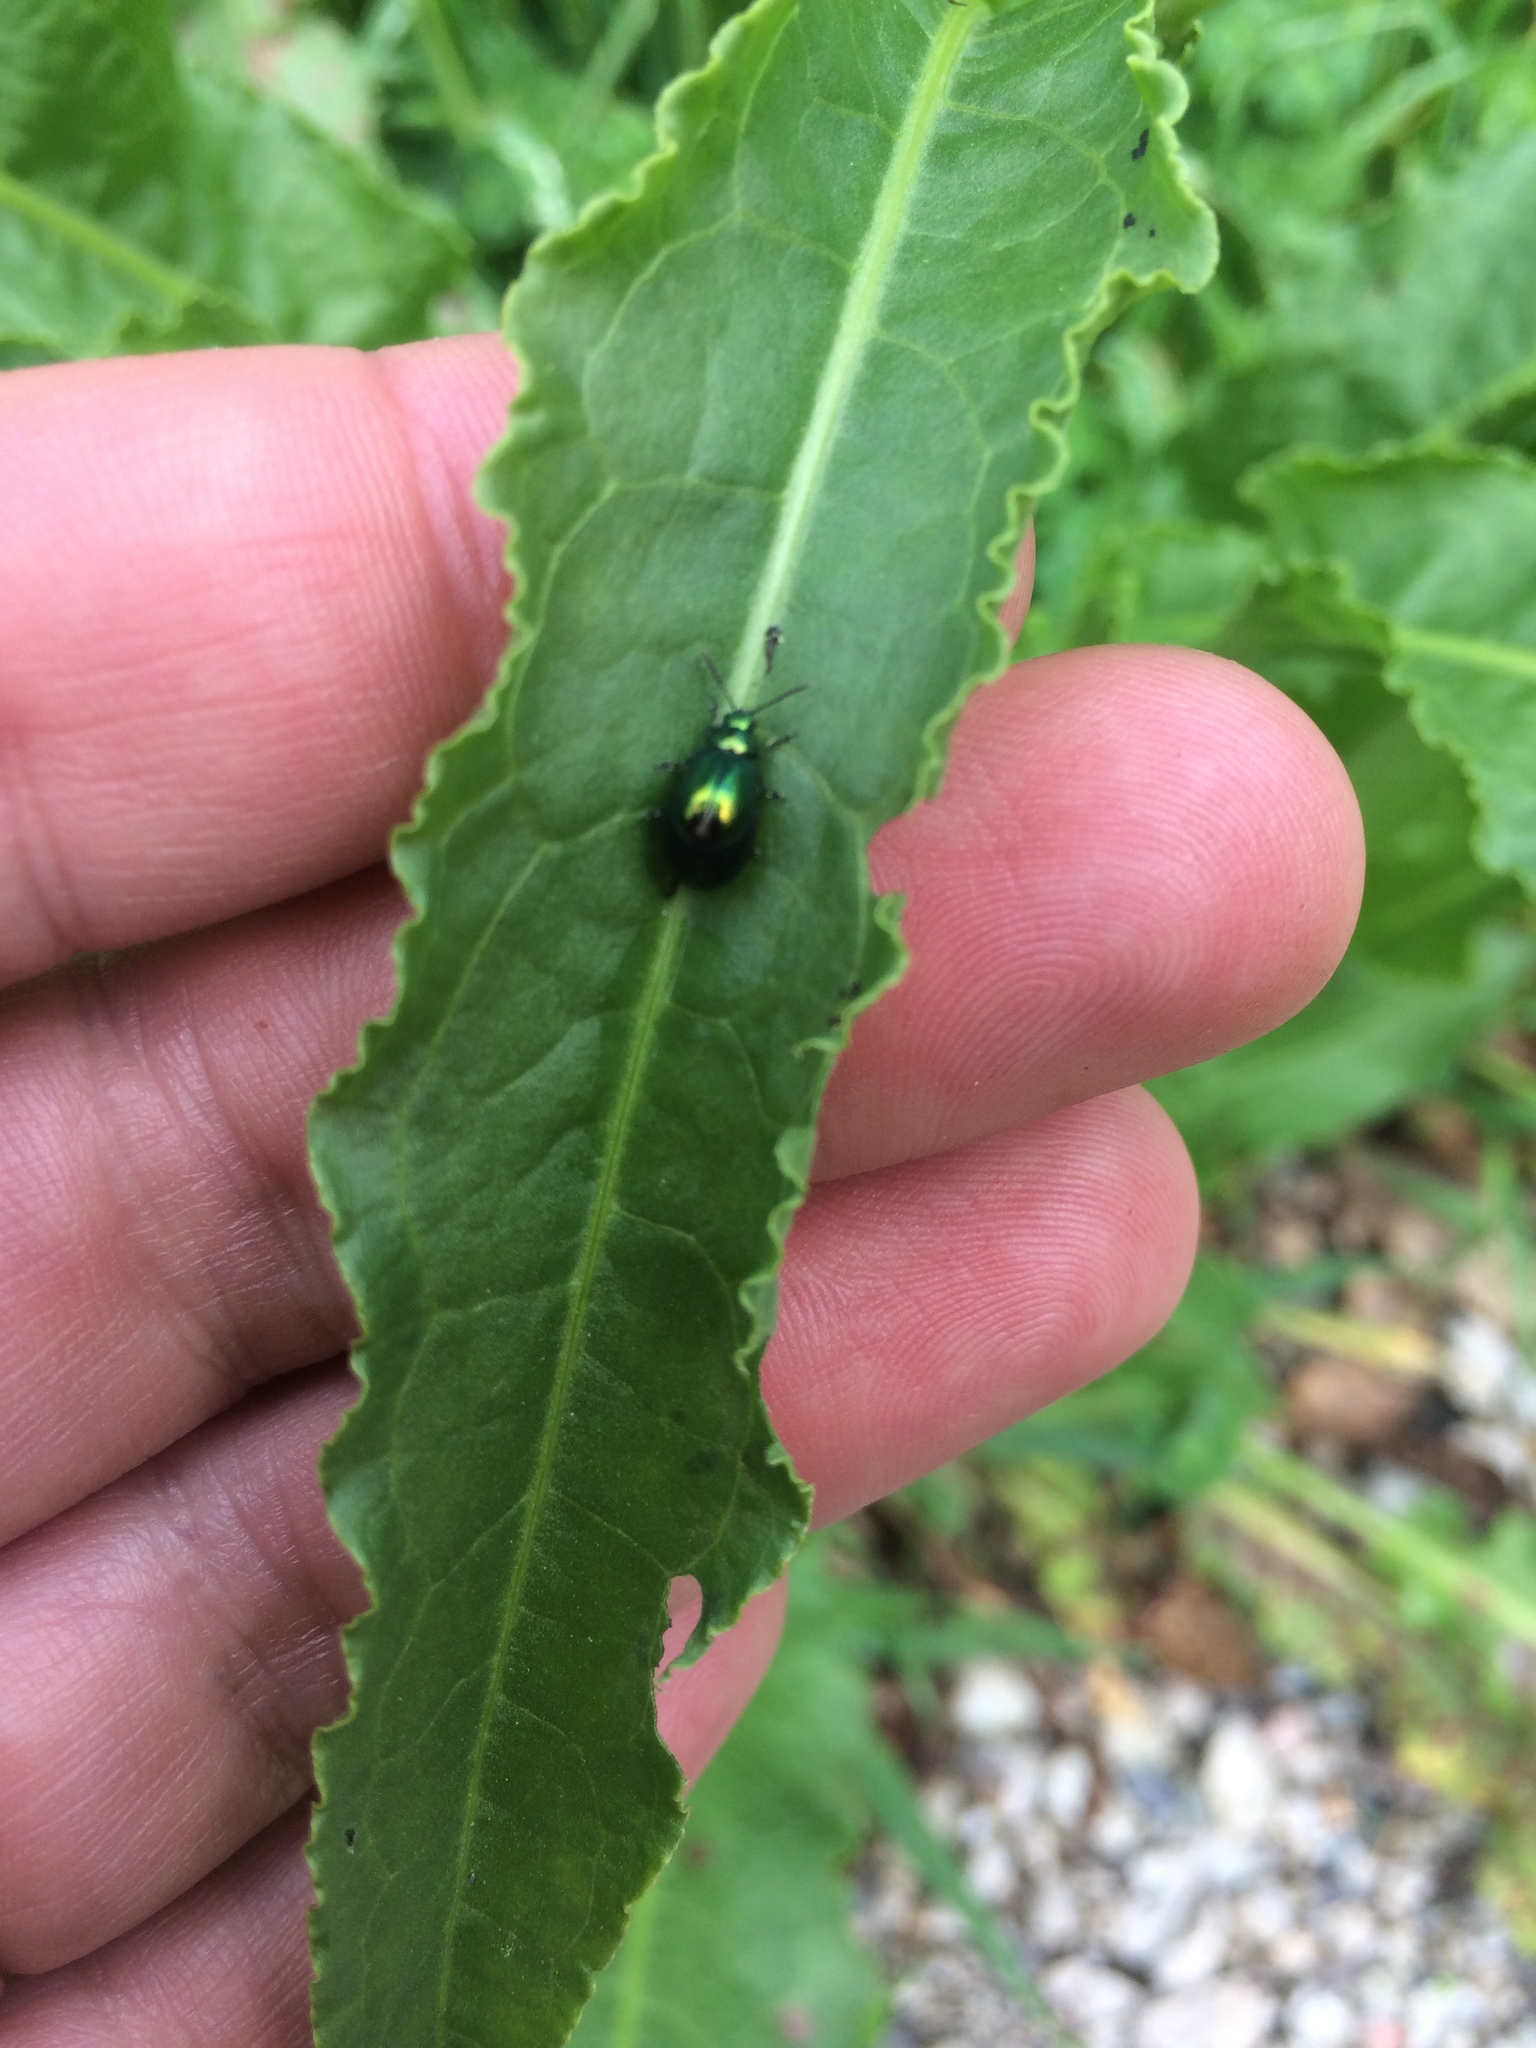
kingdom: Animalia
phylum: Arthropoda
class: Insecta
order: Coleoptera
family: Chrysomelidae
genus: Gastrophysa
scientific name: Gastrophysa cyanea
